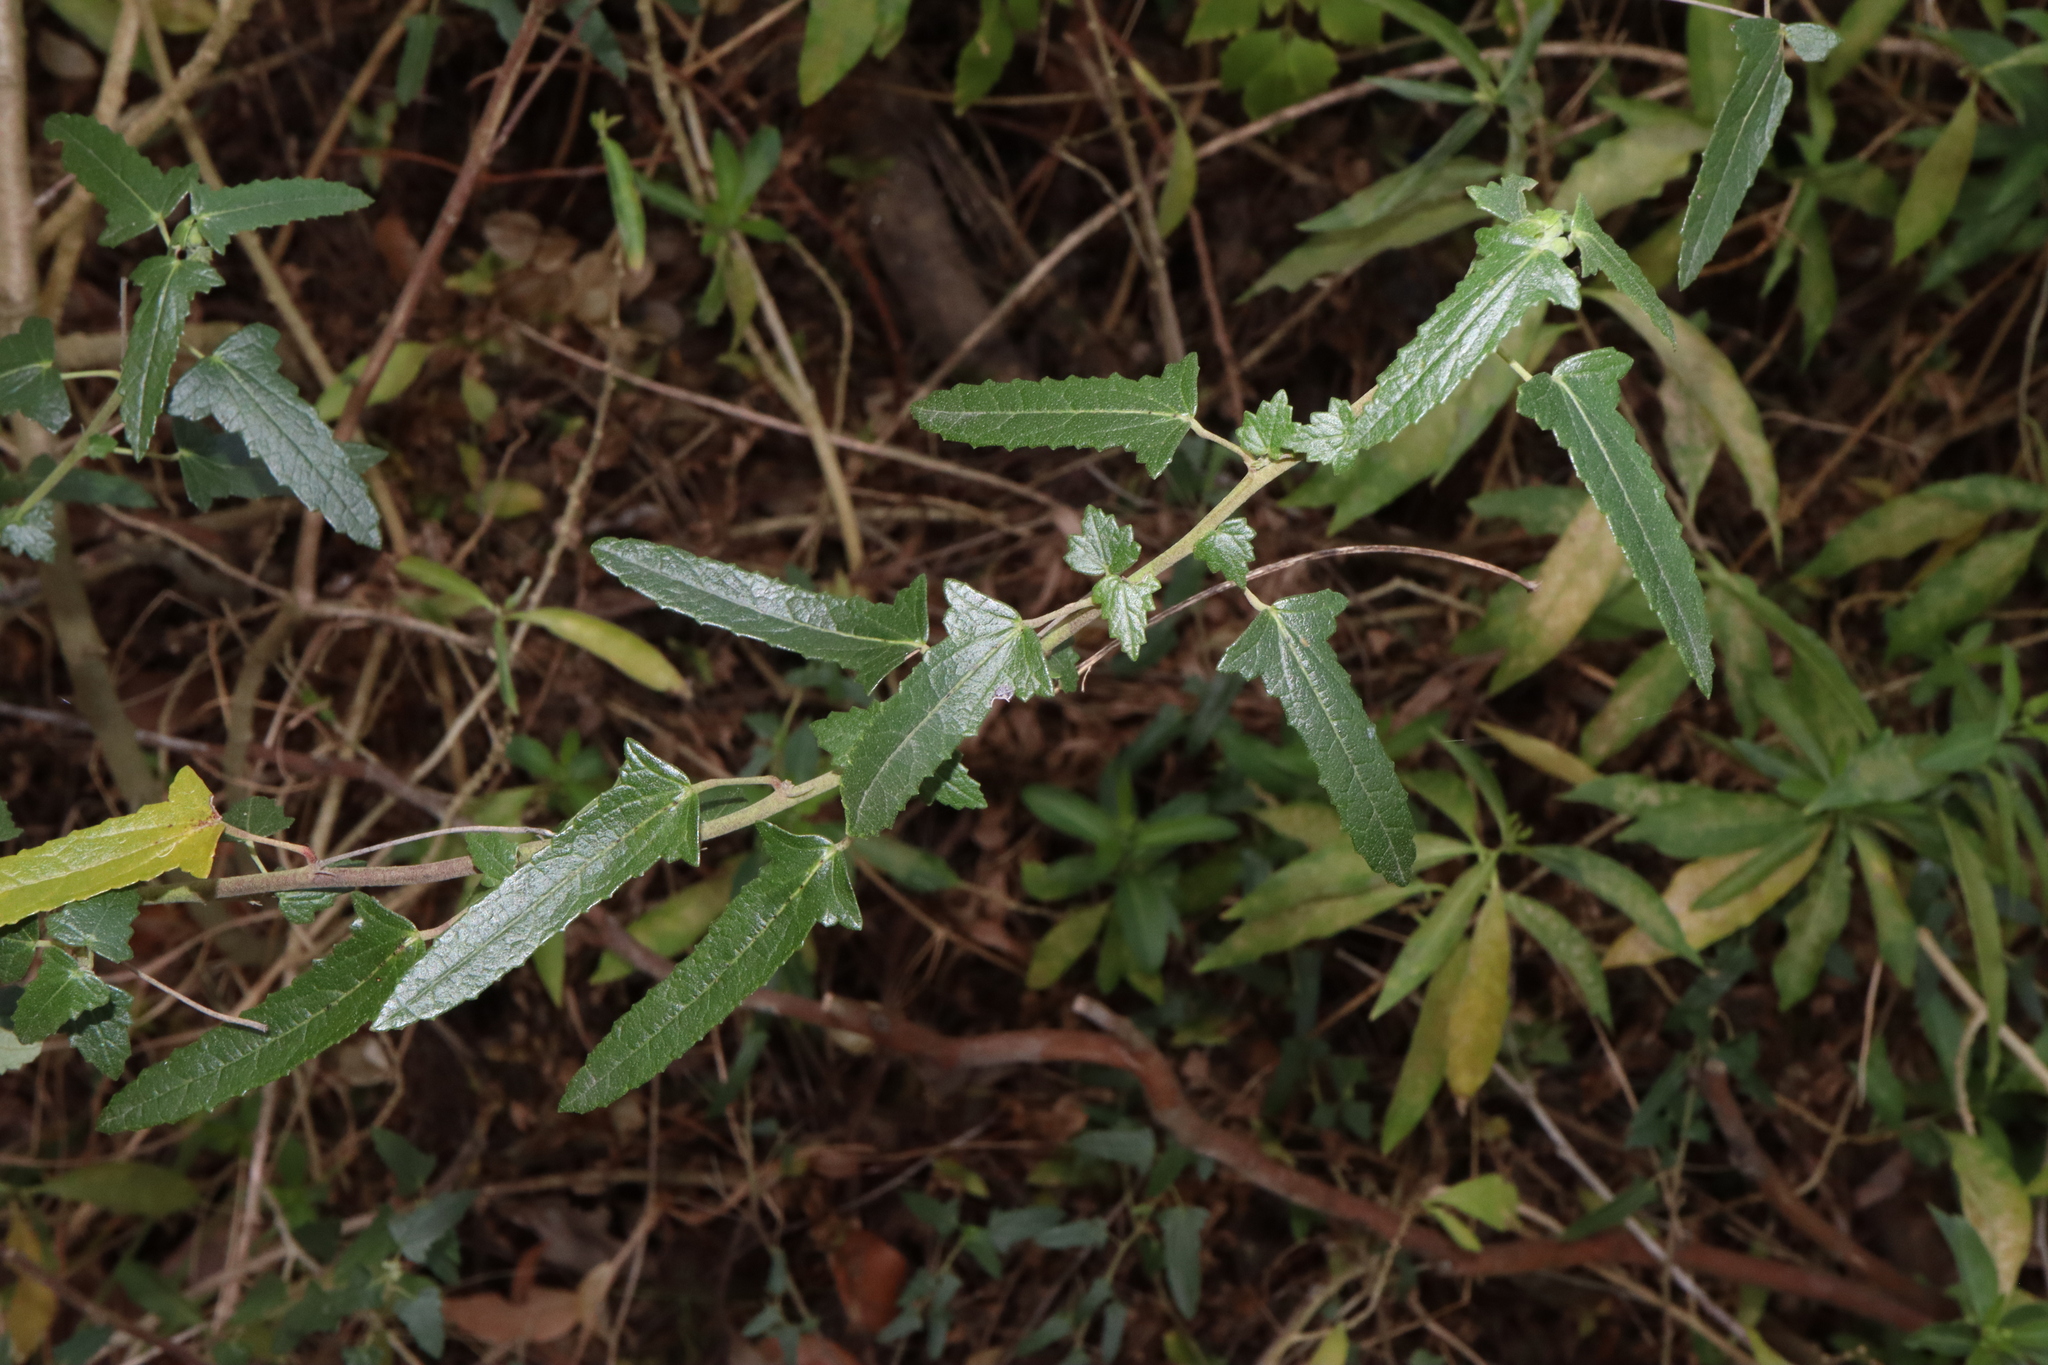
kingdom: Plantae
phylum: Tracheophyta
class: Magnoliopsida
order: Malvales
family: Malvaceae
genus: Pavonia
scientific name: Pavonia hastata
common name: Spearleaf swampmallow
